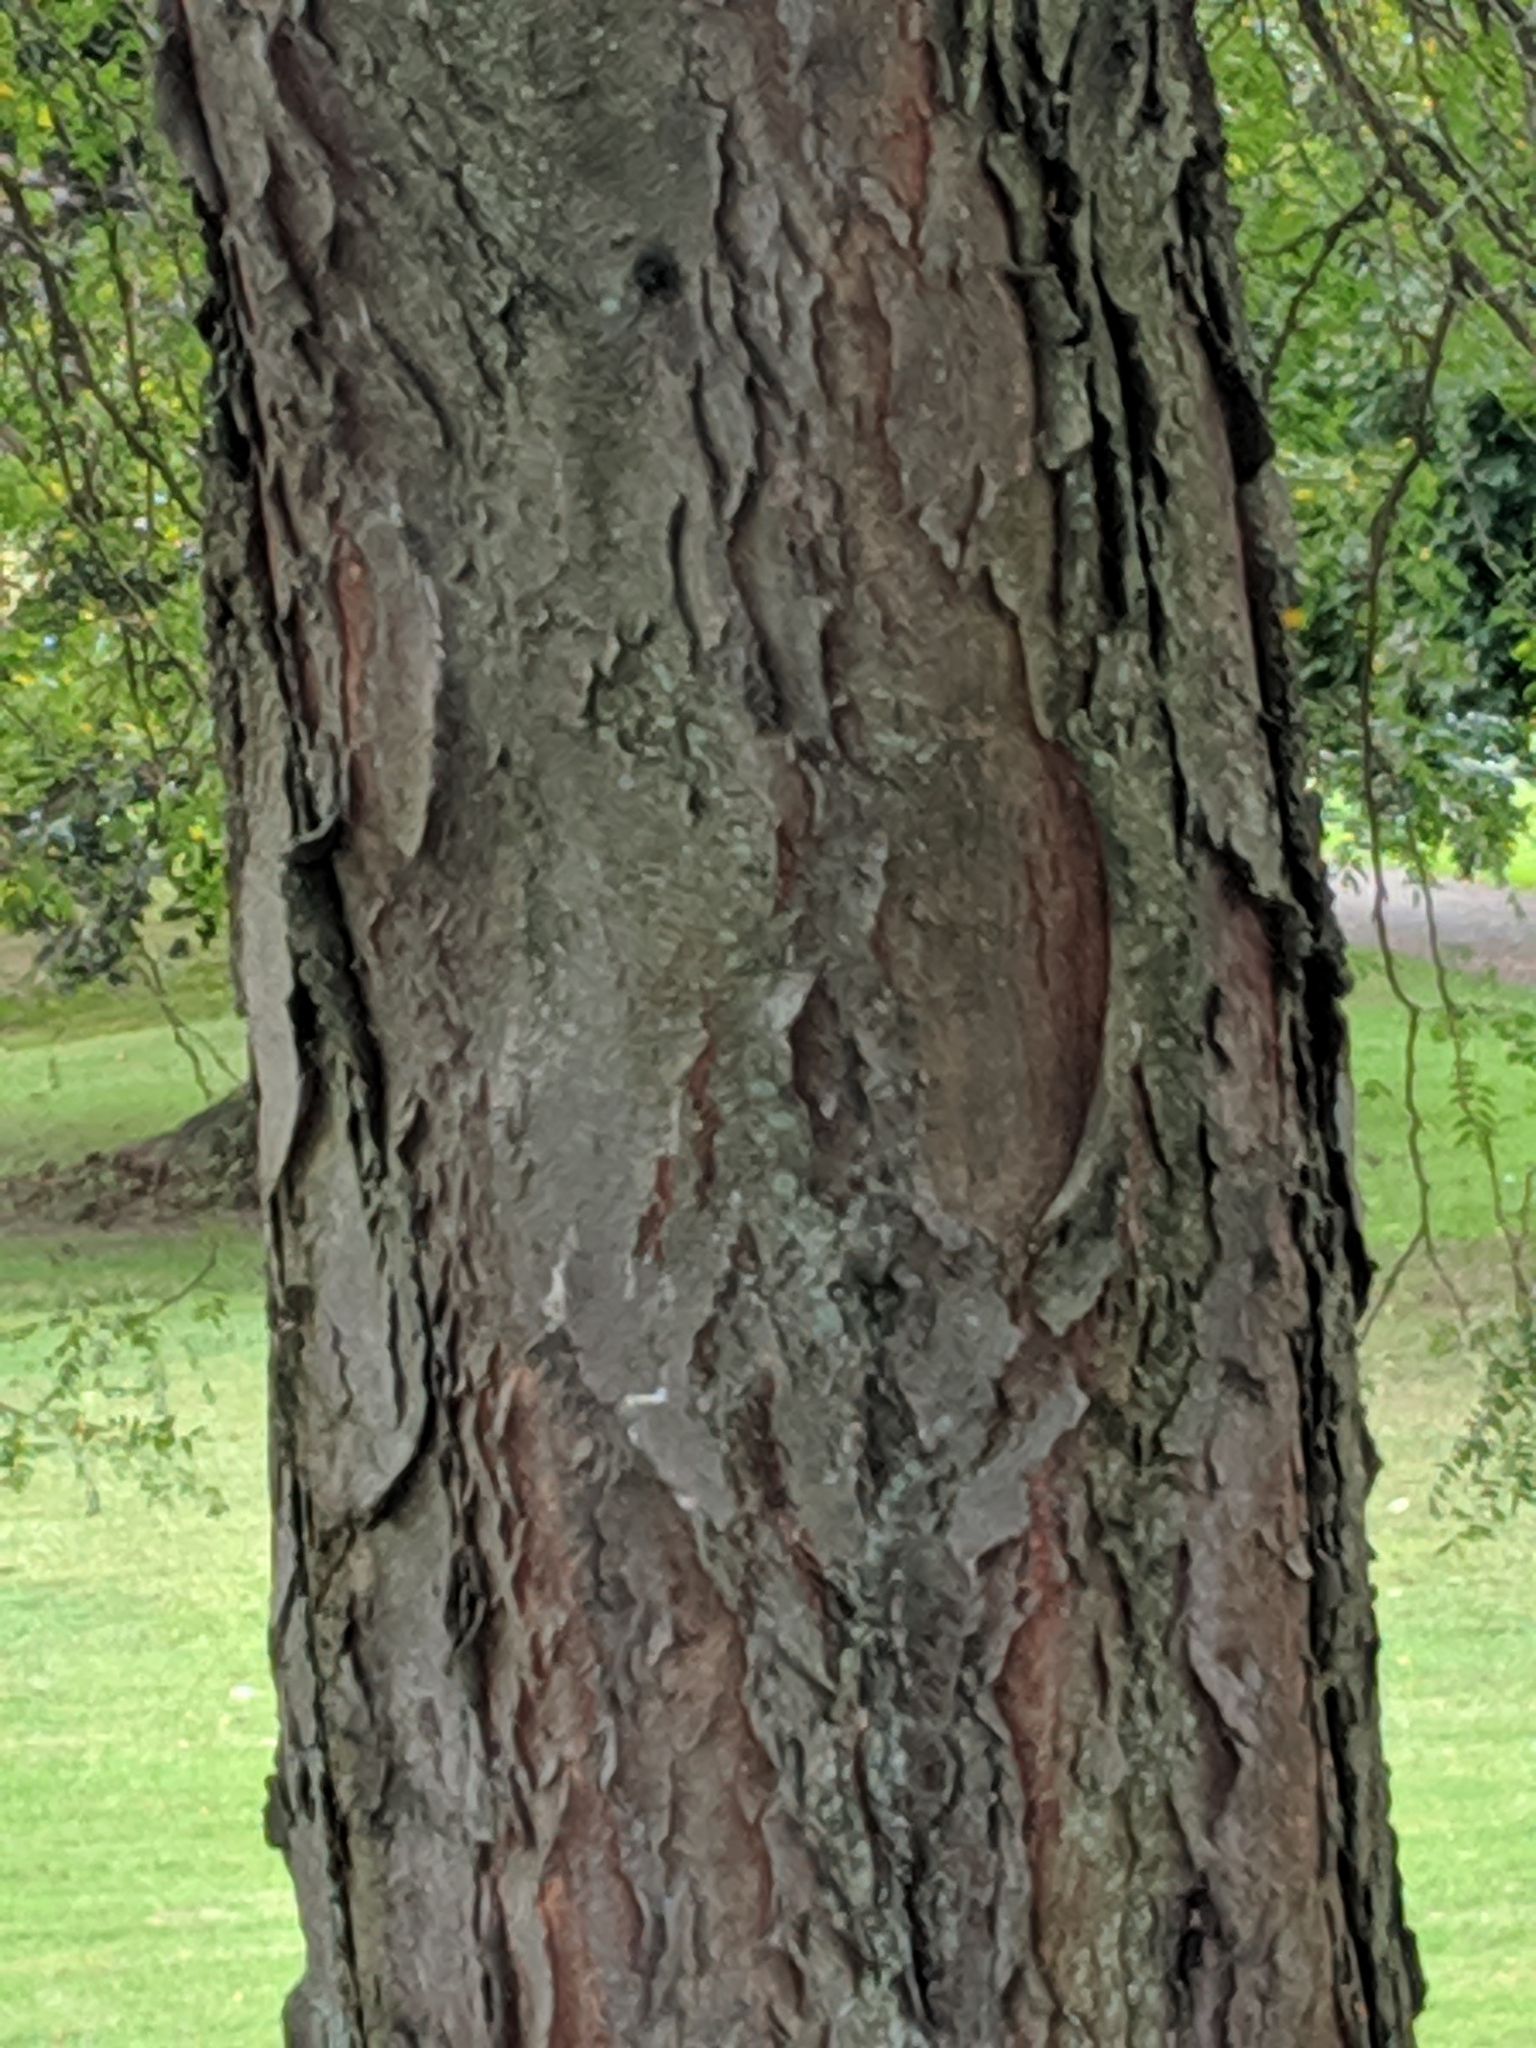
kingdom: Plantae
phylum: Tracheophyta
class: Magnoliopsida
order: Fabales
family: Fabaceae
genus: Gleditsia
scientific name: Gleditsia triacanthos
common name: Common honeylocust
